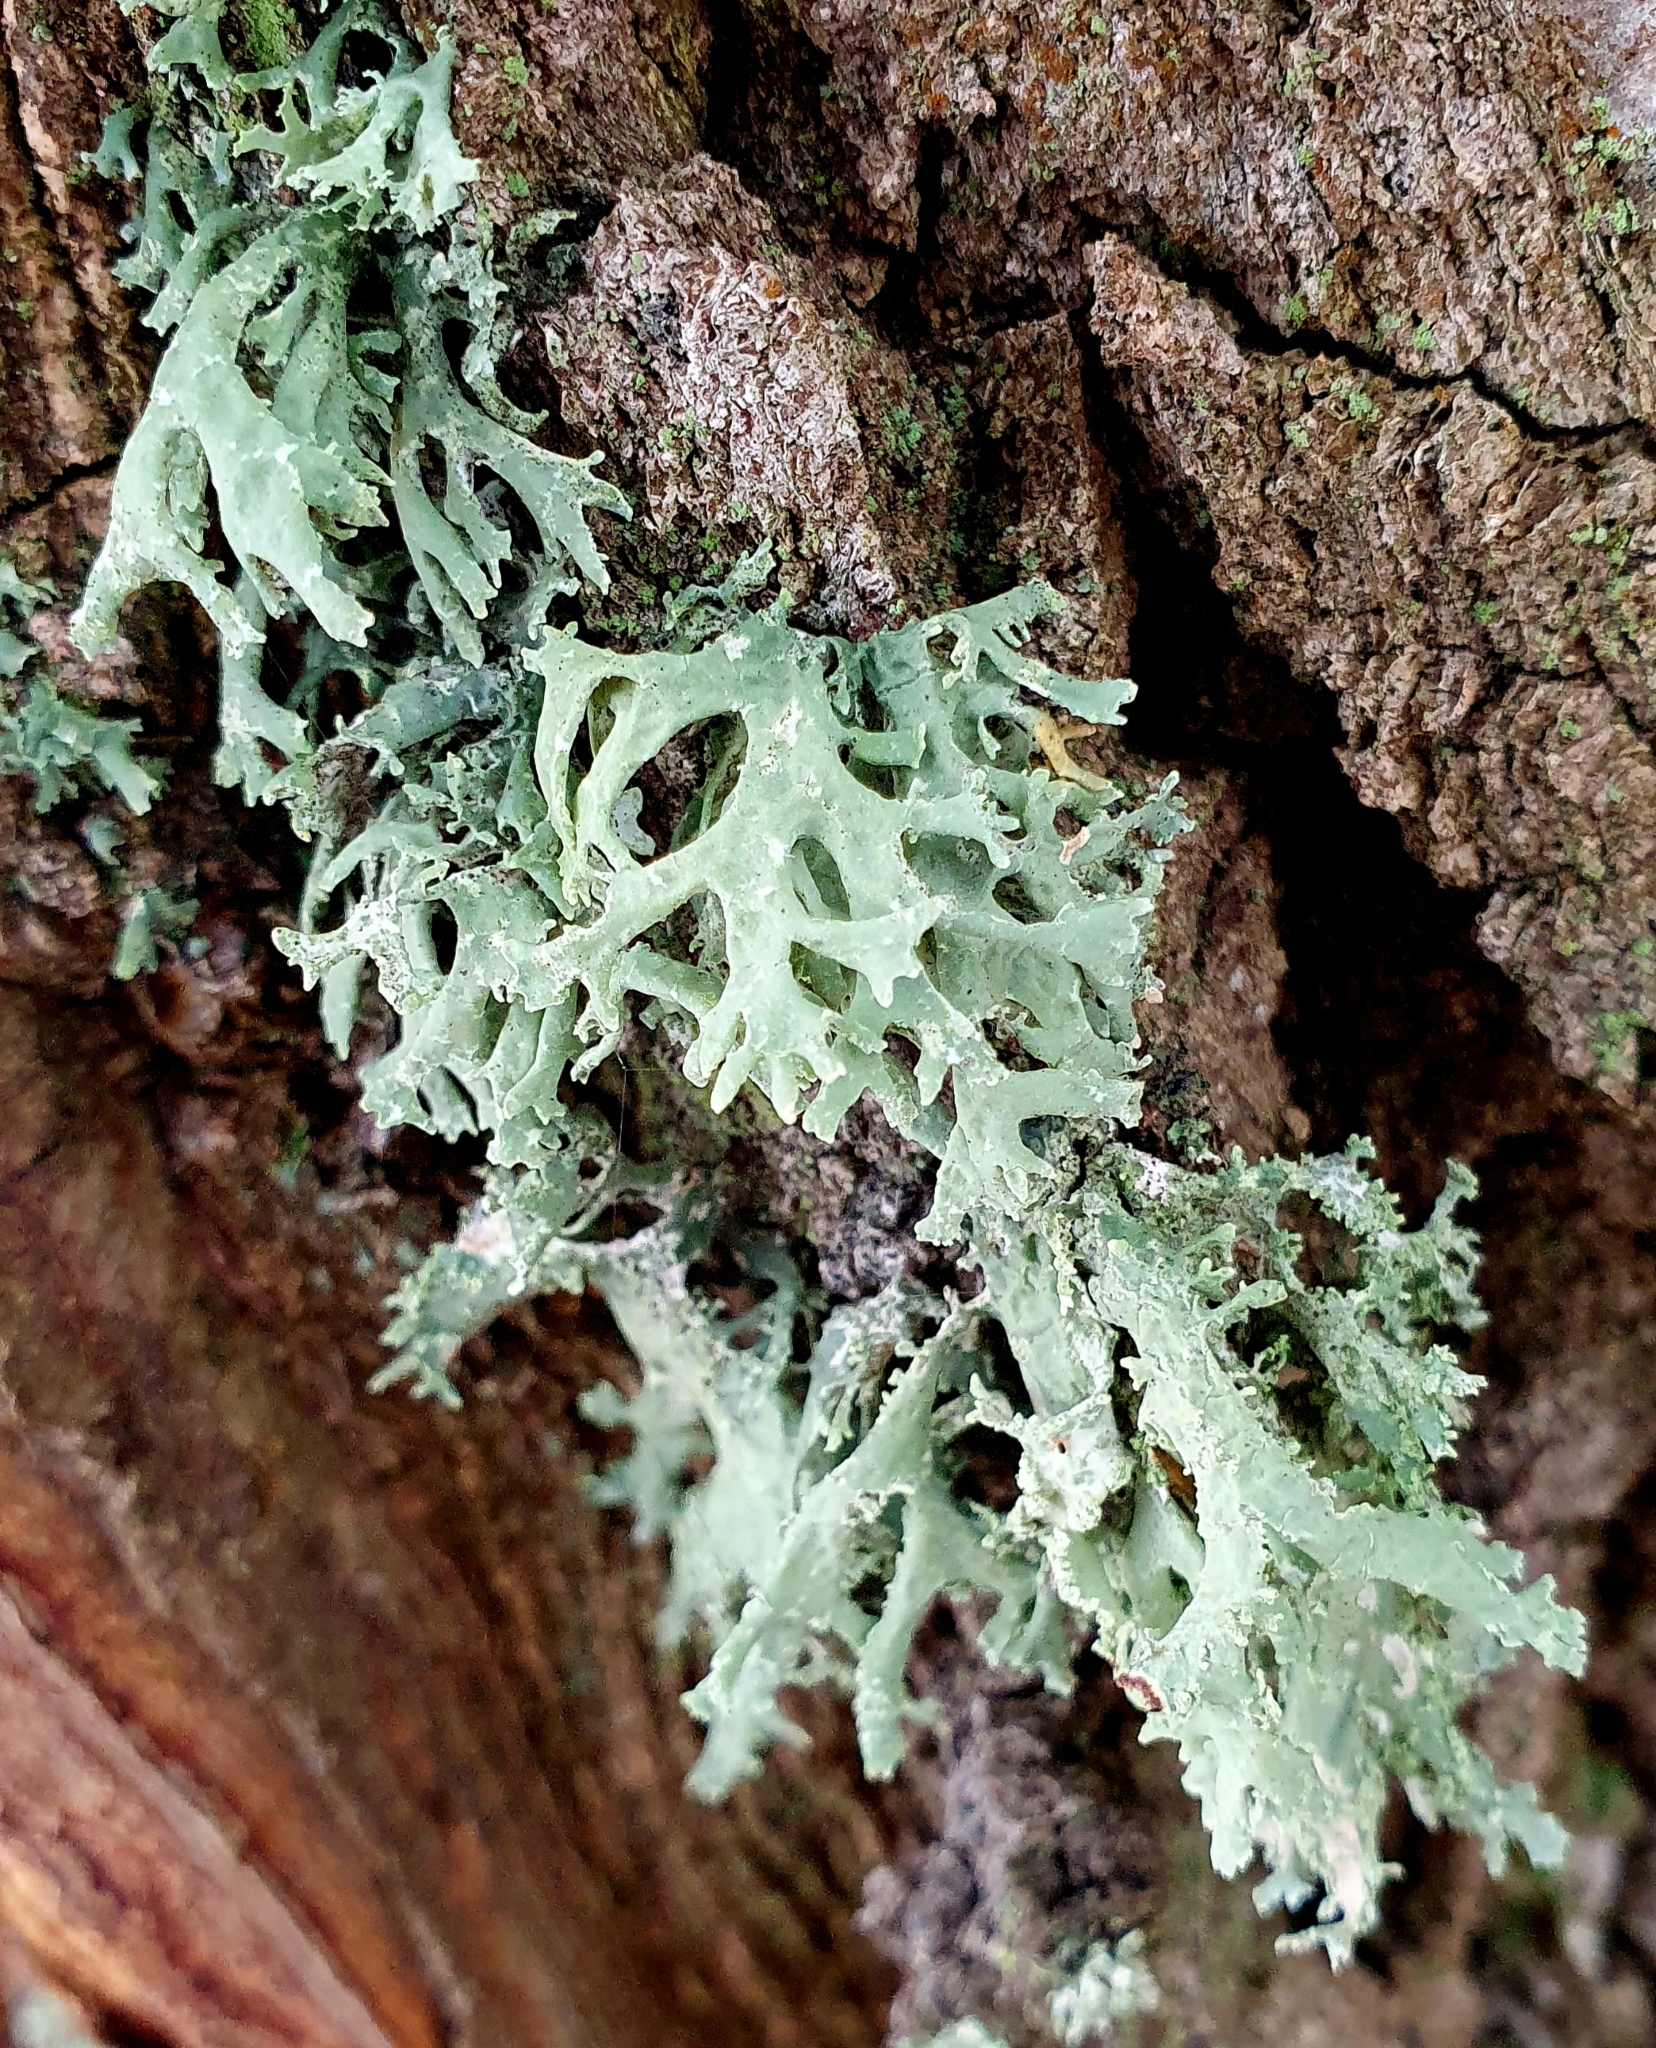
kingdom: Fungi
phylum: Ascomycota
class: Lecanoromycetes
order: Lecanorales
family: Parmeliaceae
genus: Evernia
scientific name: Evernia prunastri
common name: Oak moss
